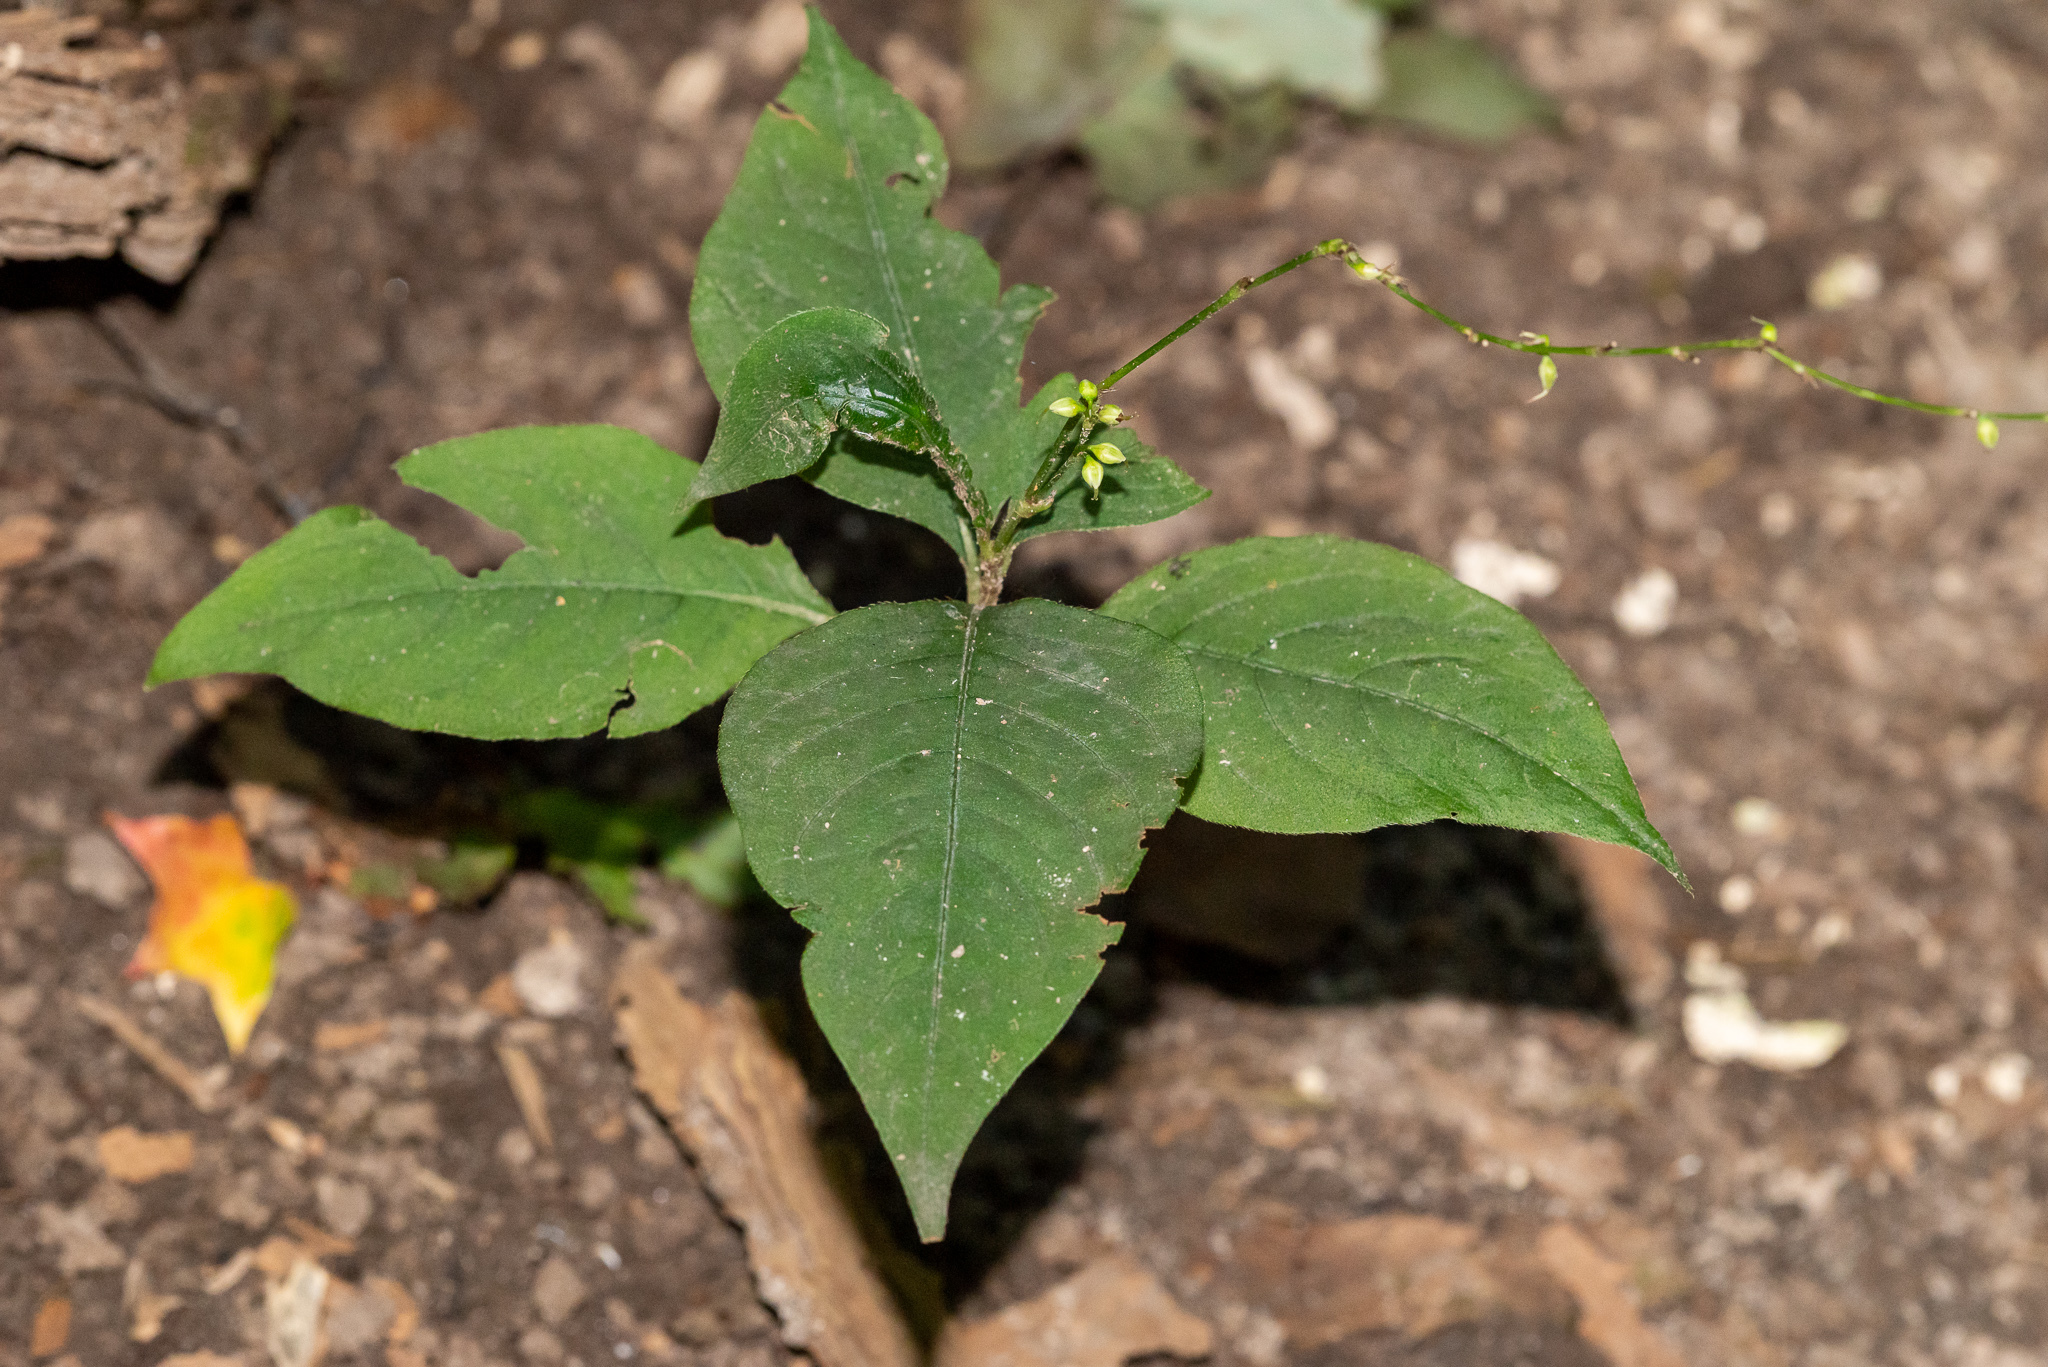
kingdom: Plantae
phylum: Tracheophyta
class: Magnoliopsida
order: Caryophyllales
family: Polygonaceae
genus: Persicaria
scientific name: Persicaria virginiana
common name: Jumpseed
